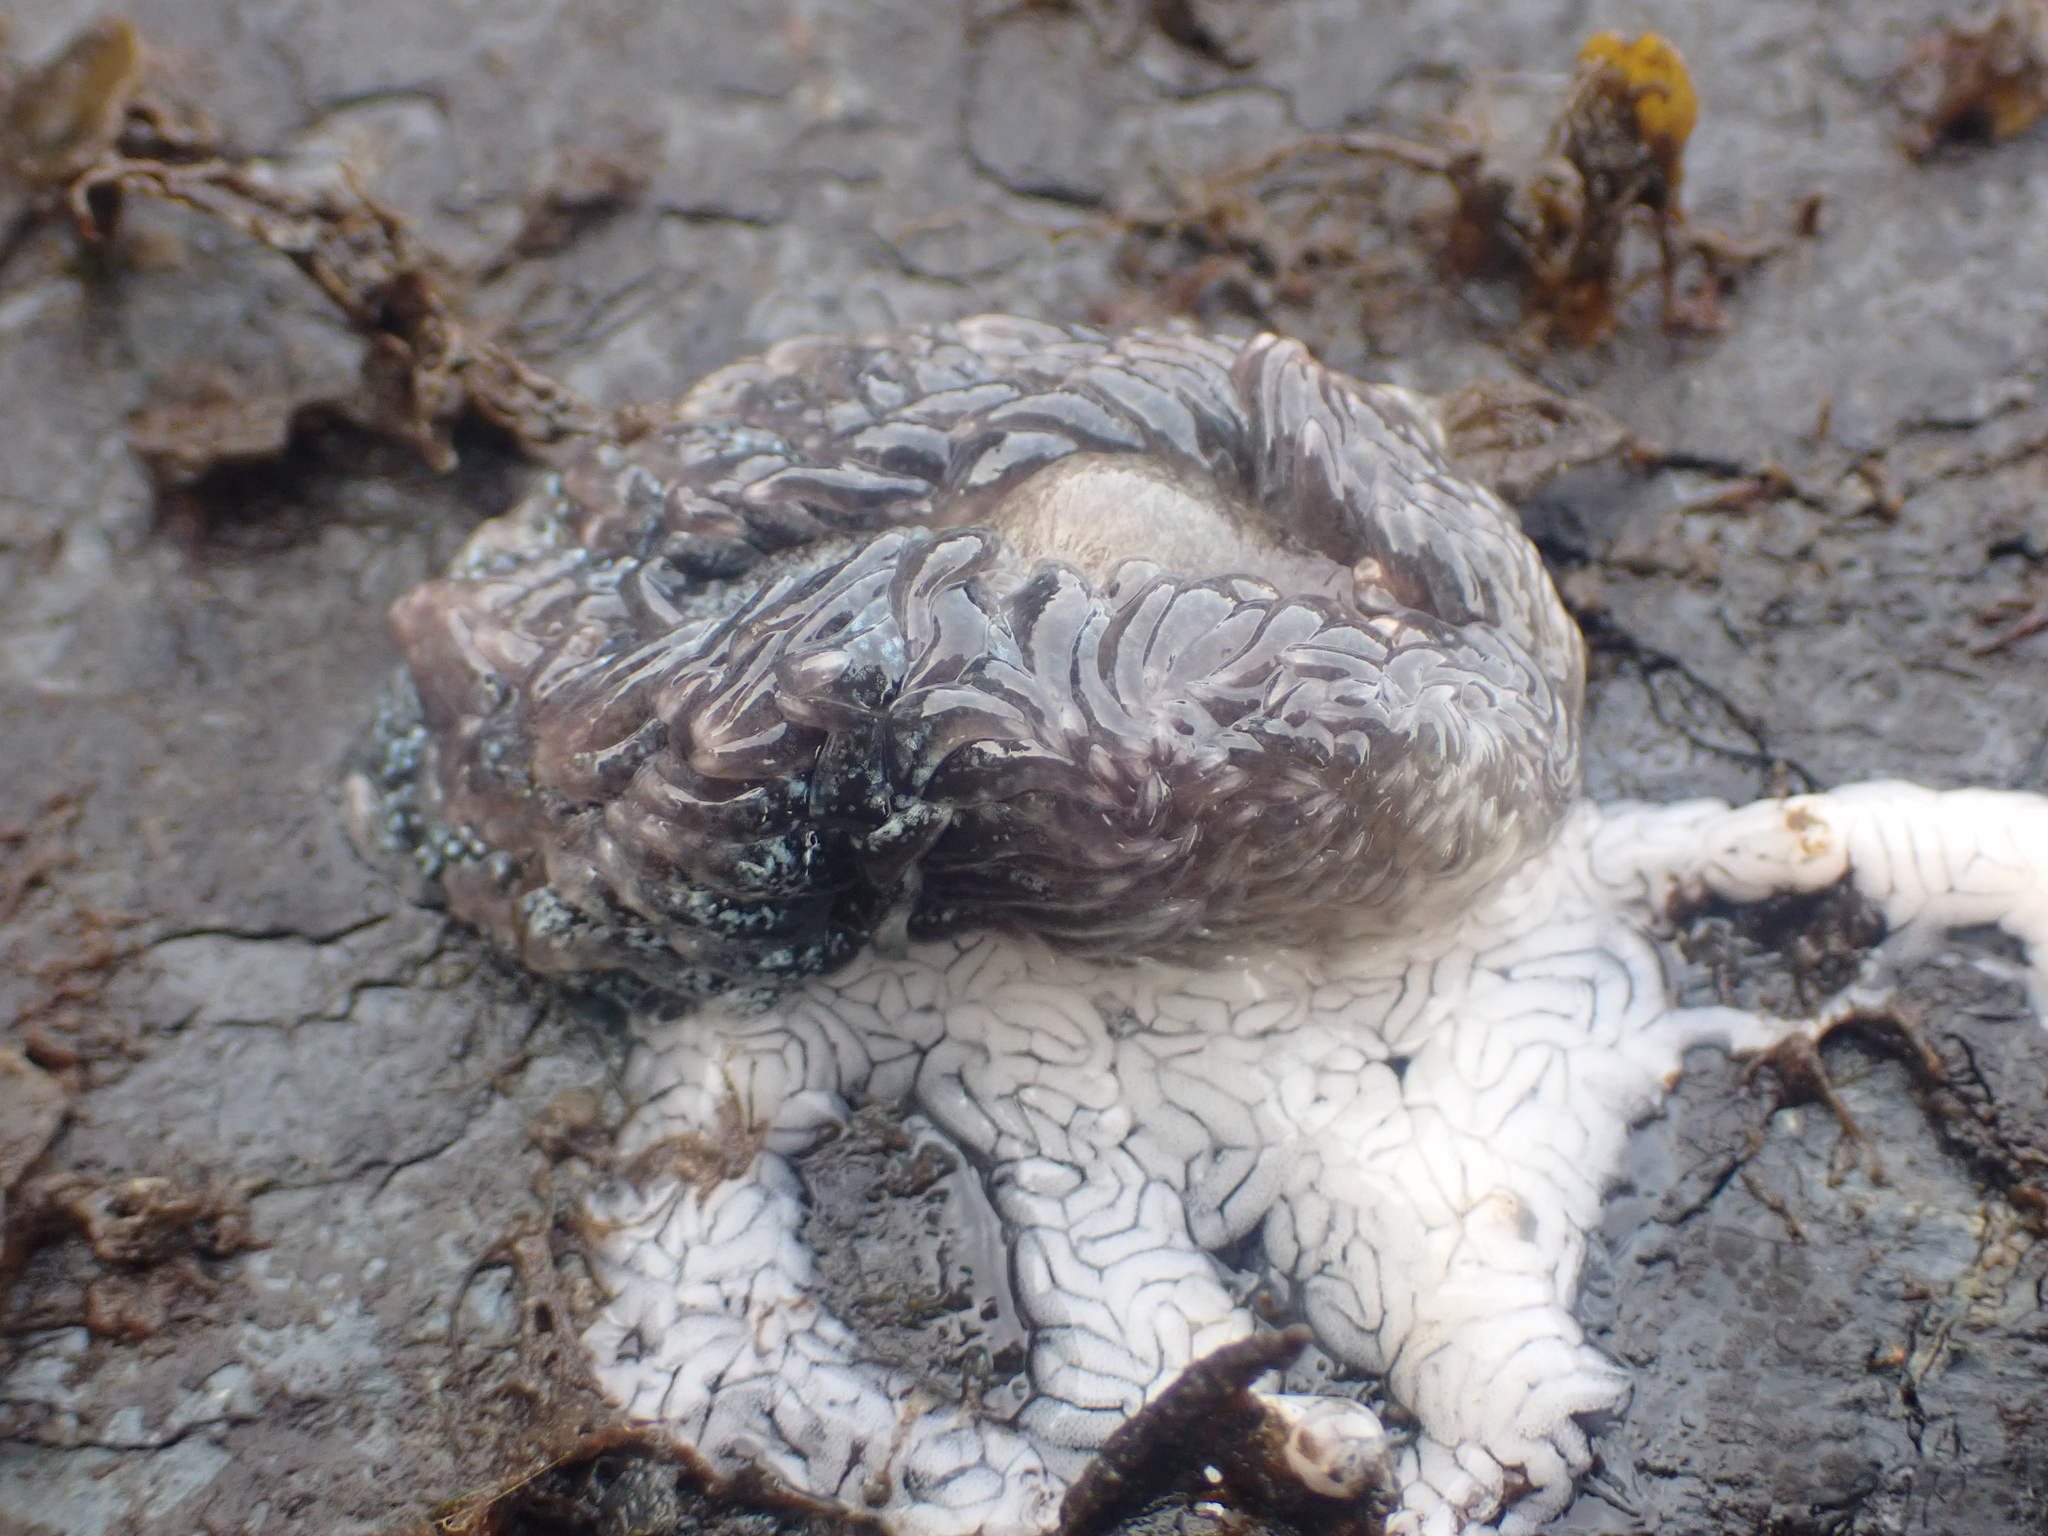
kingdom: Animalia
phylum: Mollusca
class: Gastropoda
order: Nudibranchia
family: Aeolidiidae
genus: Aeolidia
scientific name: Aeolidia papillosa
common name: Common grey sea slug
